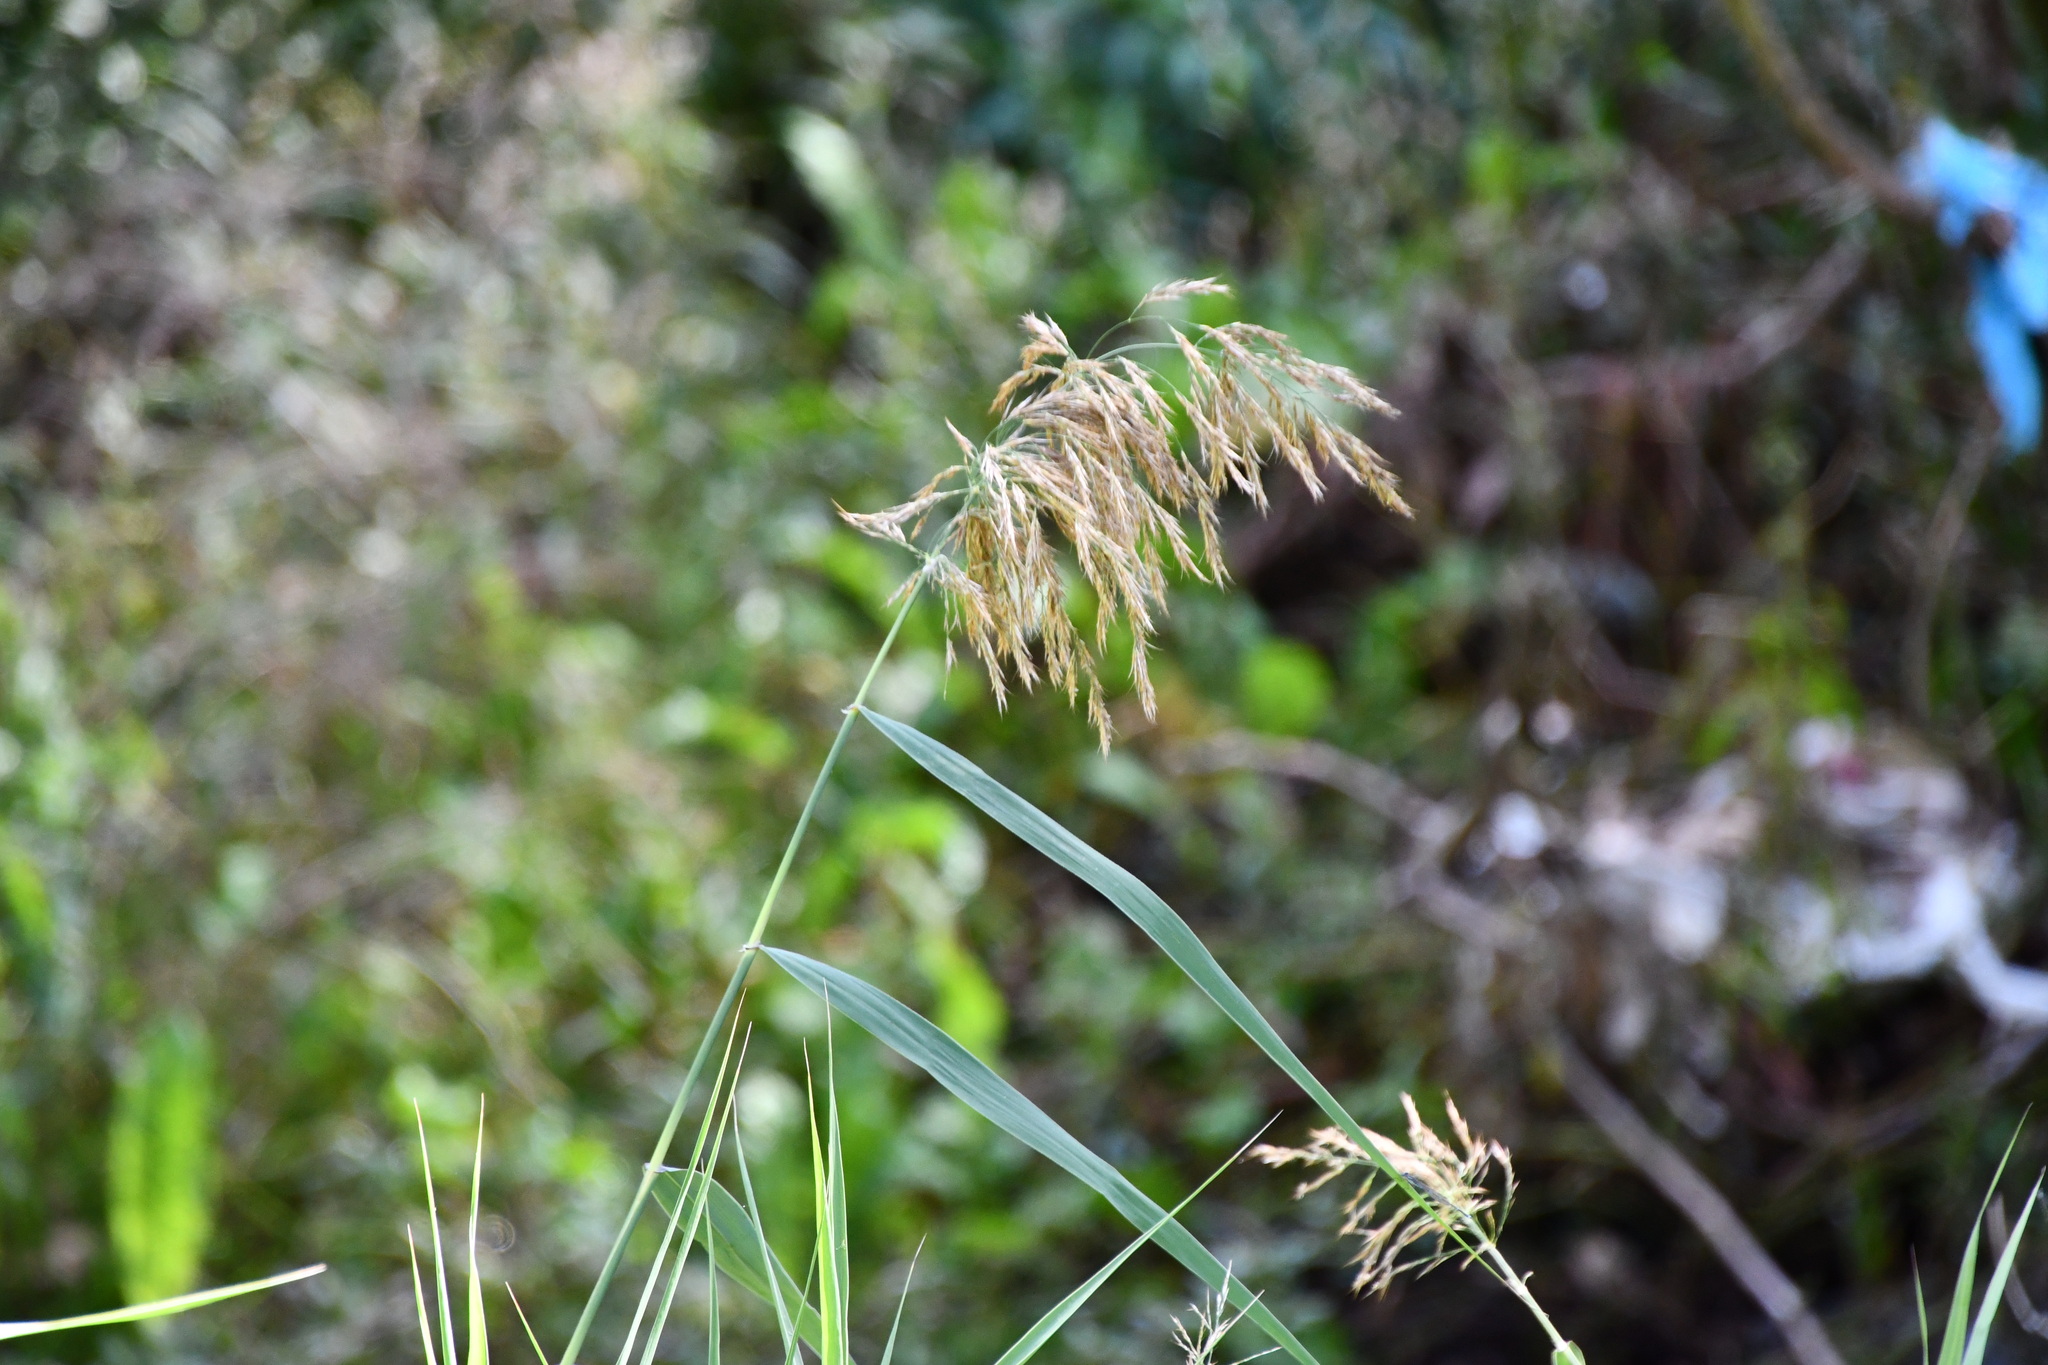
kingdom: Plantae
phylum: Tracheophyta
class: Liliopsida
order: Poales
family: Poaceae
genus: Phragmites
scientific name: Phragmites australis
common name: Common reed
